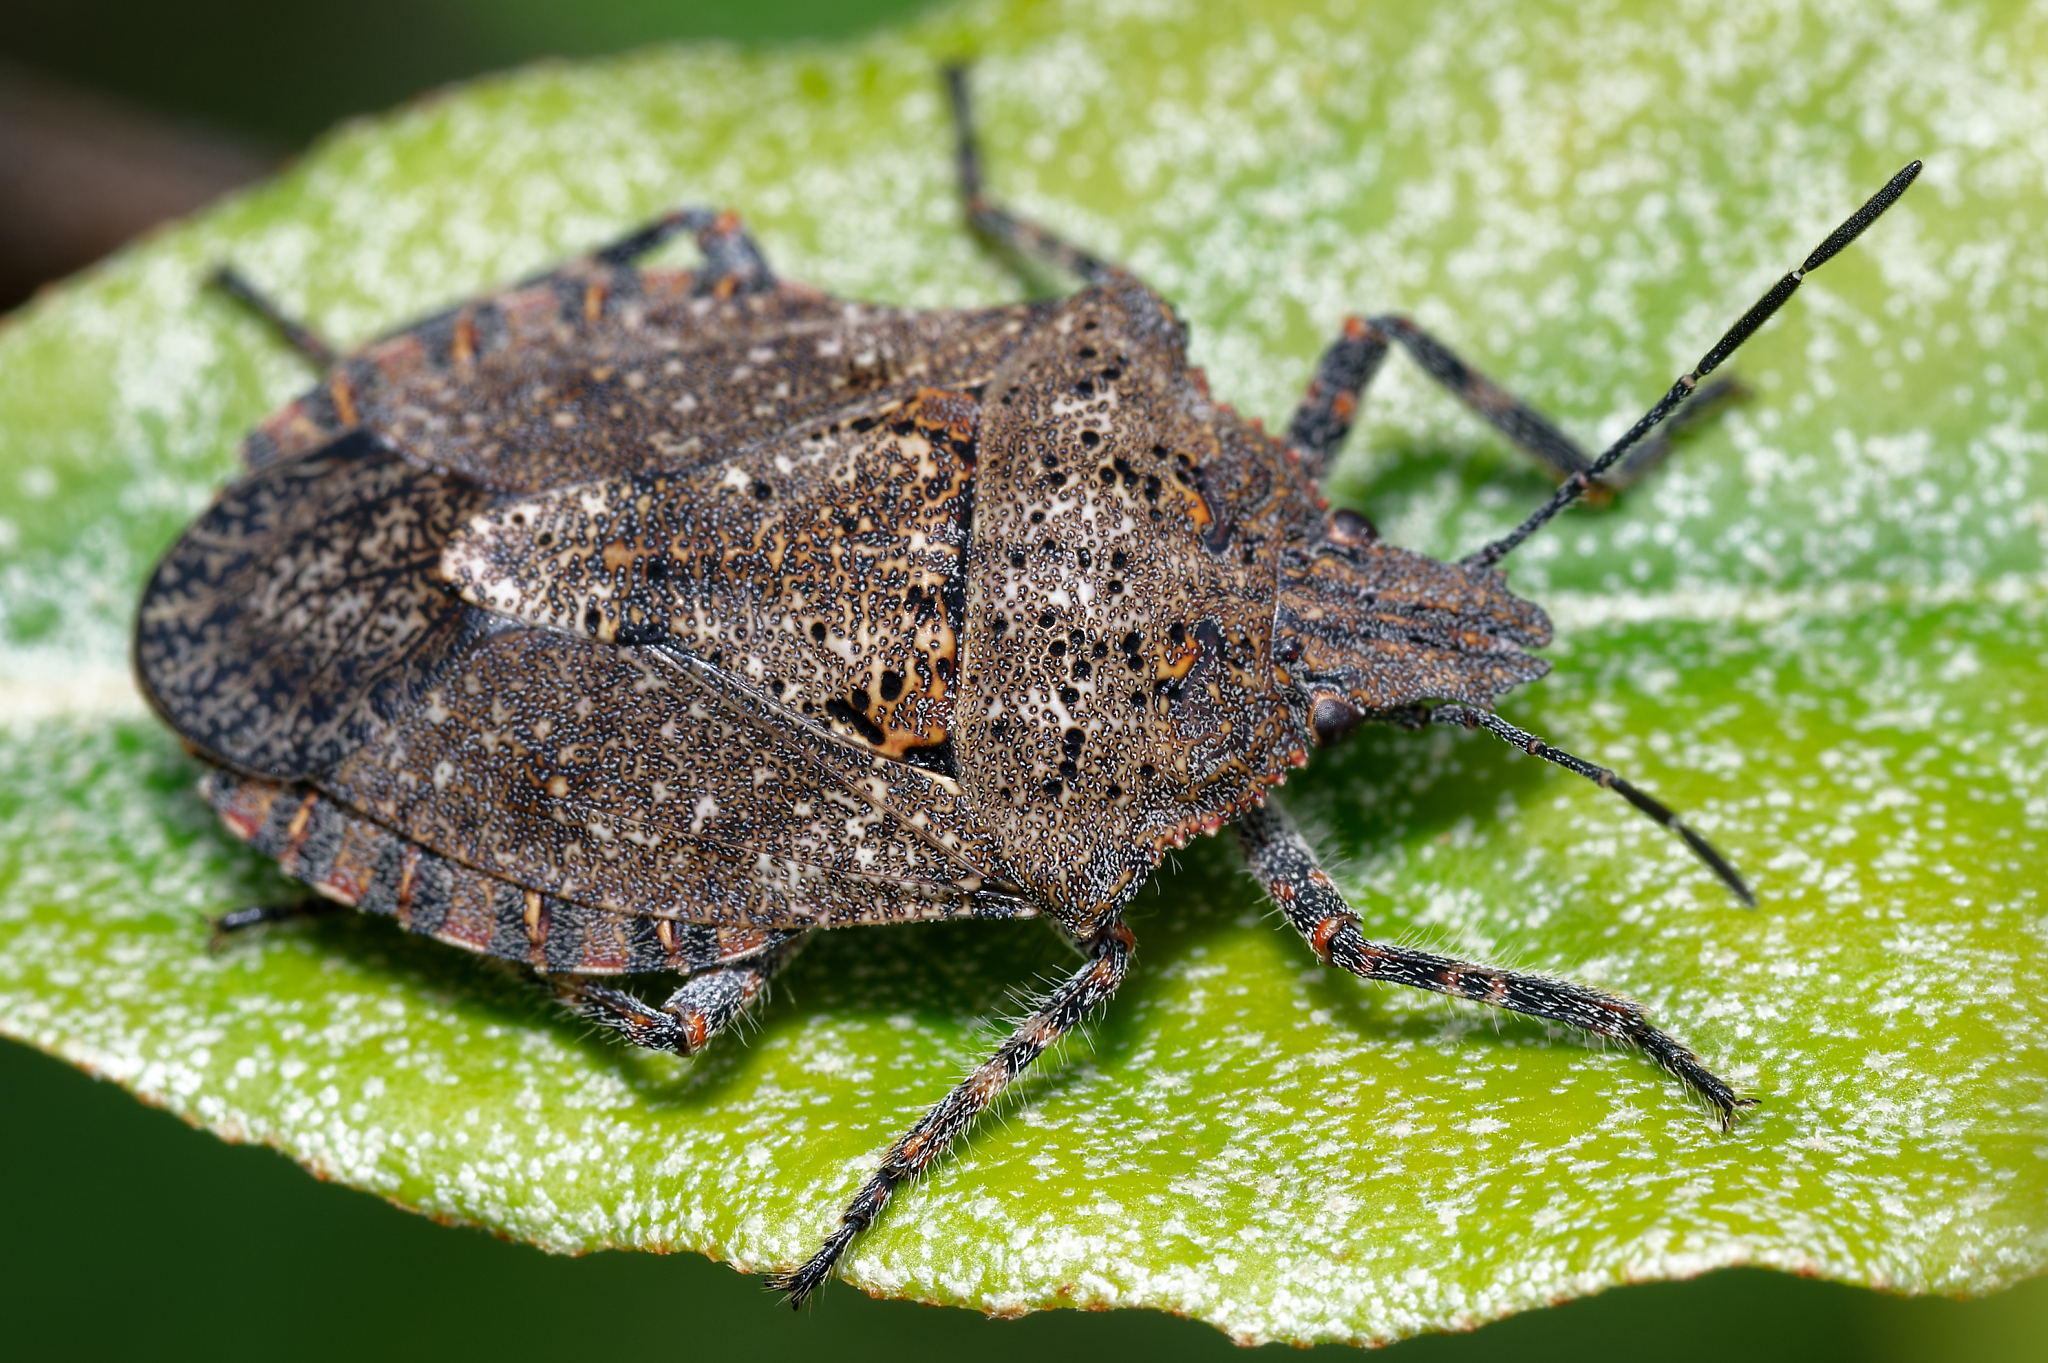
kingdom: Animalia
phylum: Arthropoda
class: Insecta
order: Hemiptera
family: Pentatomidae
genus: Brochymena
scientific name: Brochymena quadripustulata
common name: Four-humped stink bug
